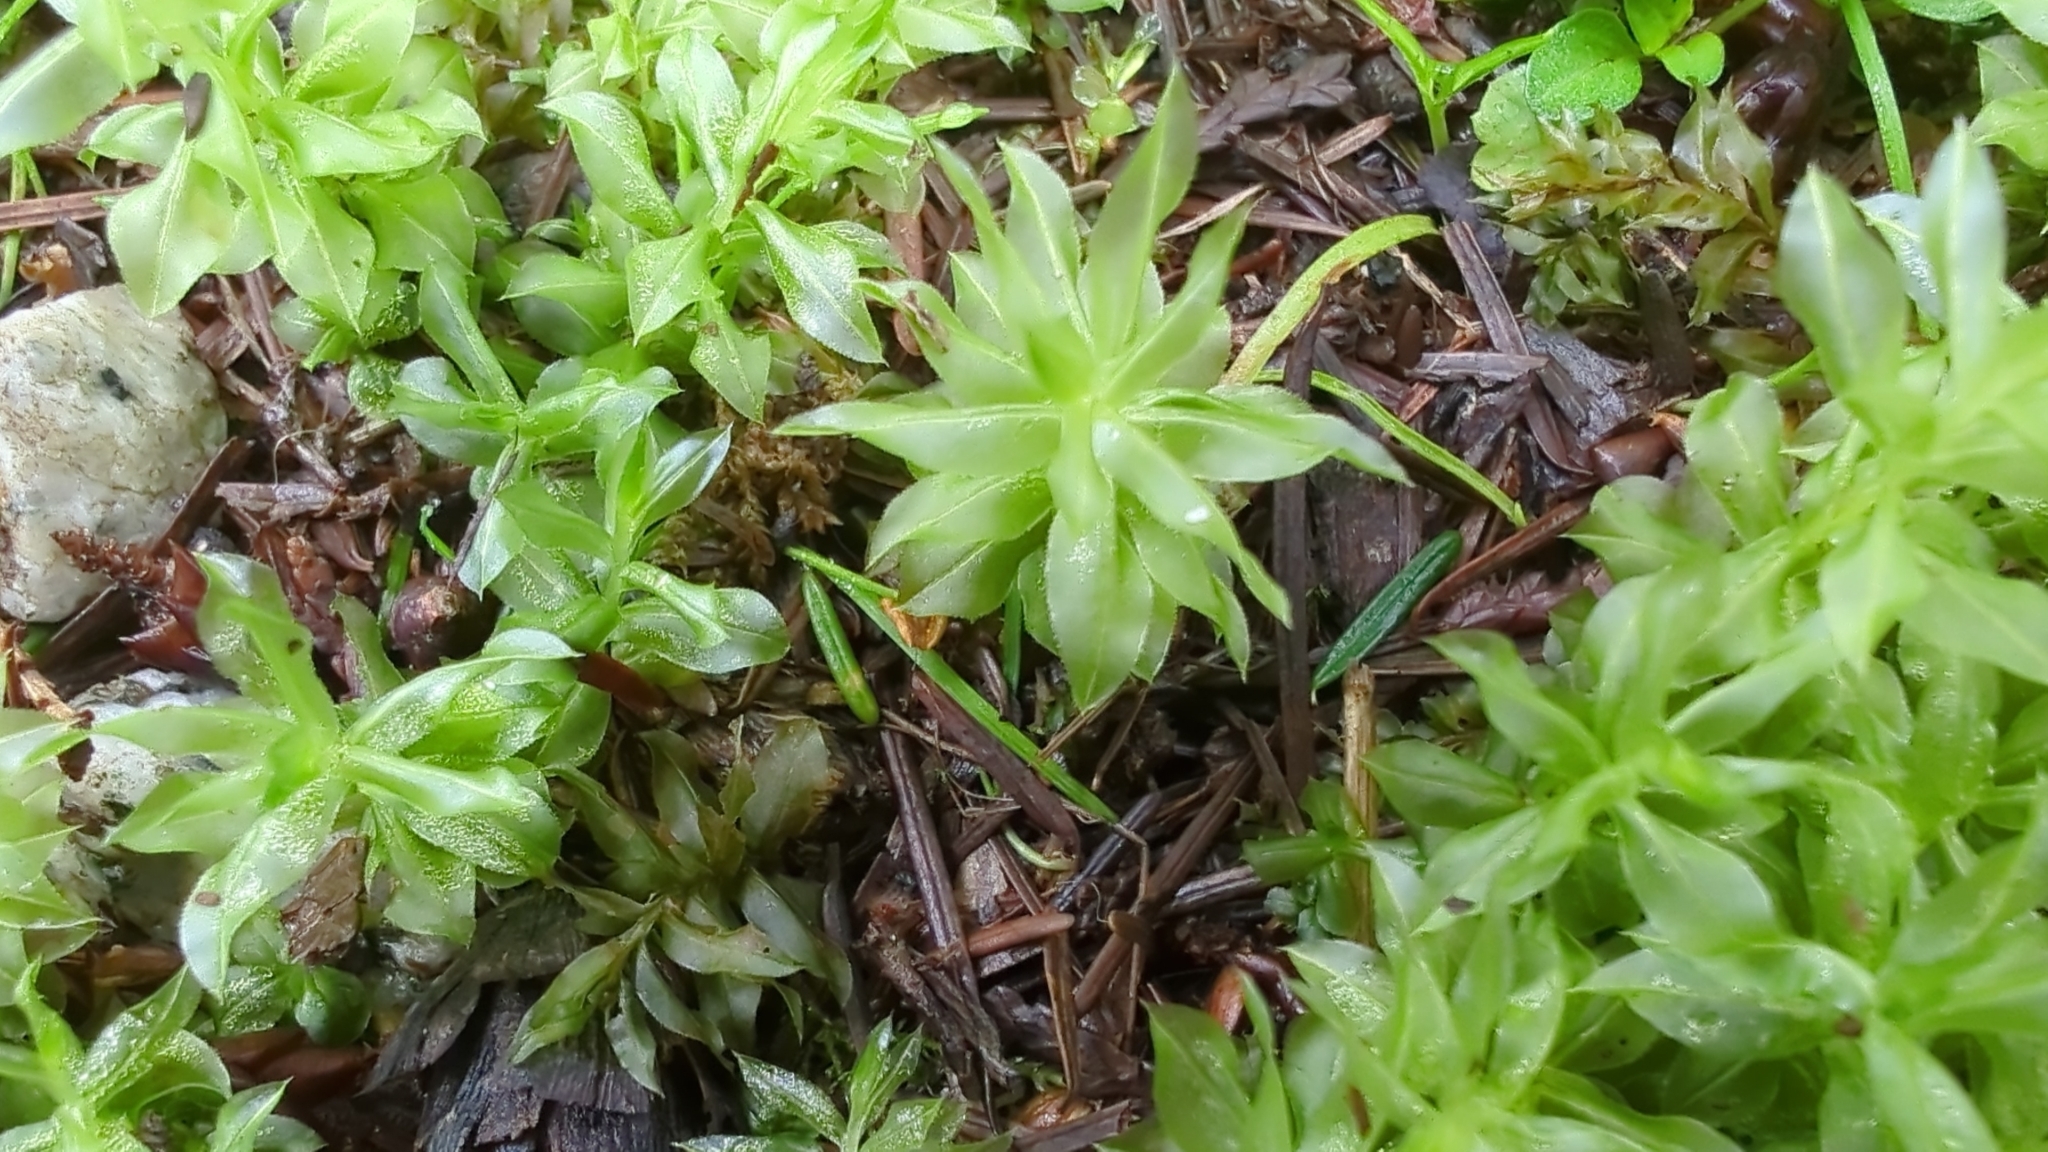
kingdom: Plantae
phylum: Bryophyta
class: Bryopsida
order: Bryales
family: Mniaceae
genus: Plagiomnium
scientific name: Plagiomnium insigne
